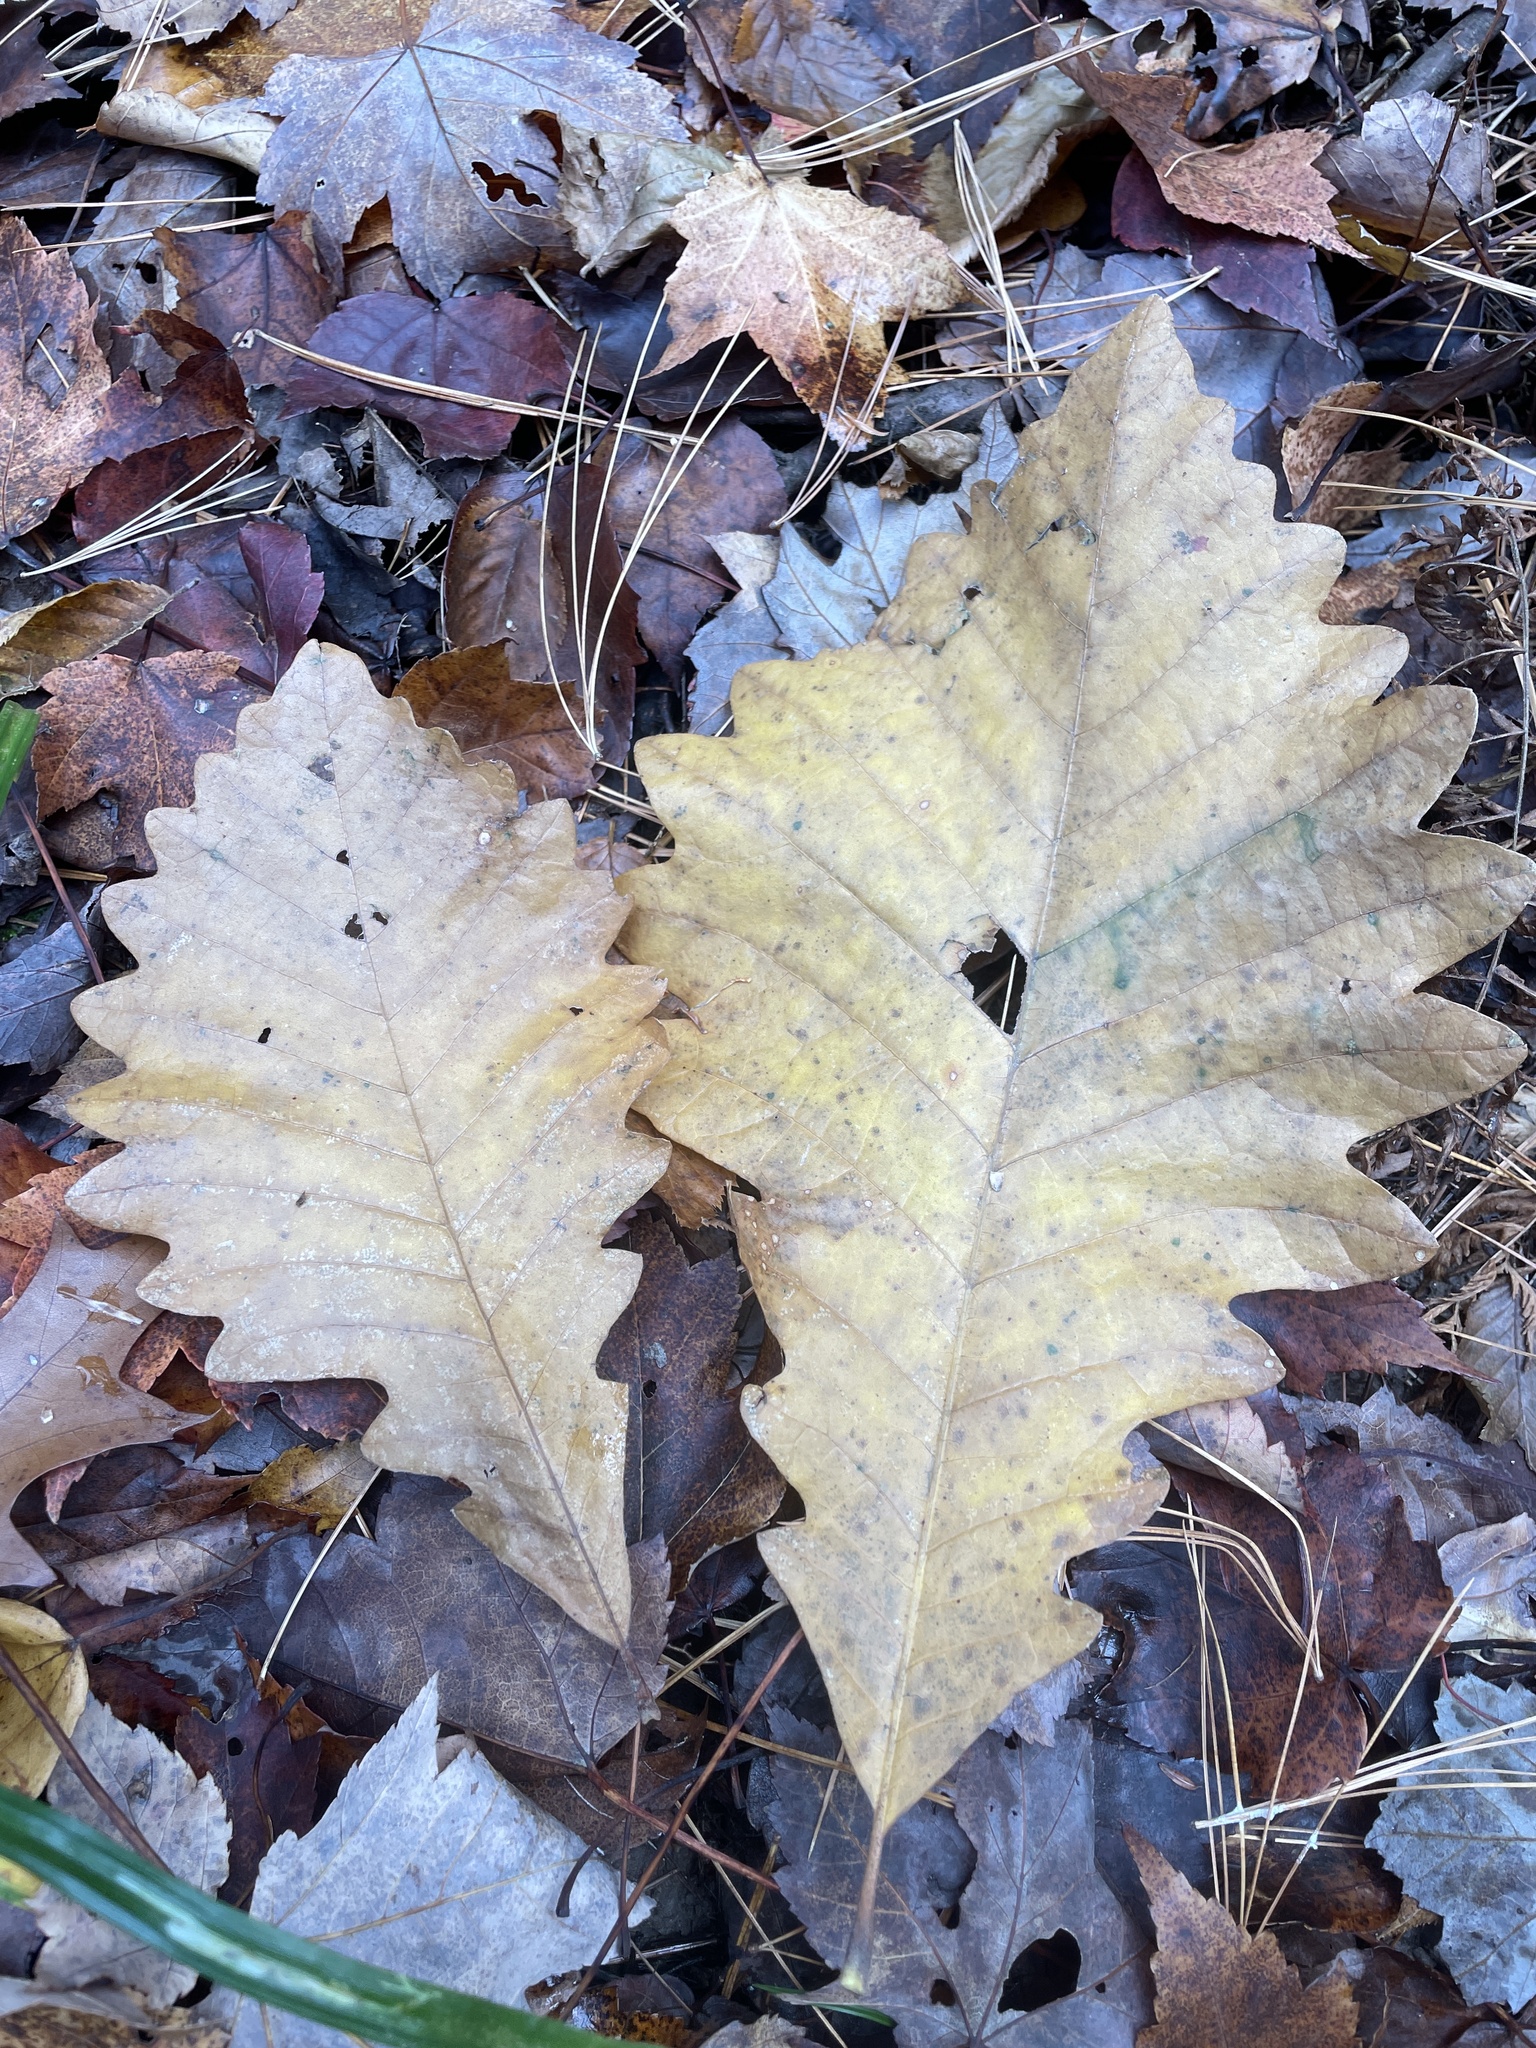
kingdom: Plantae
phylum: Tracheophyta
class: Magnoliopsida
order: Fagales
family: Fagaceae
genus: Quercus
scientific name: Quercus bicolor
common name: Swamp white oak
